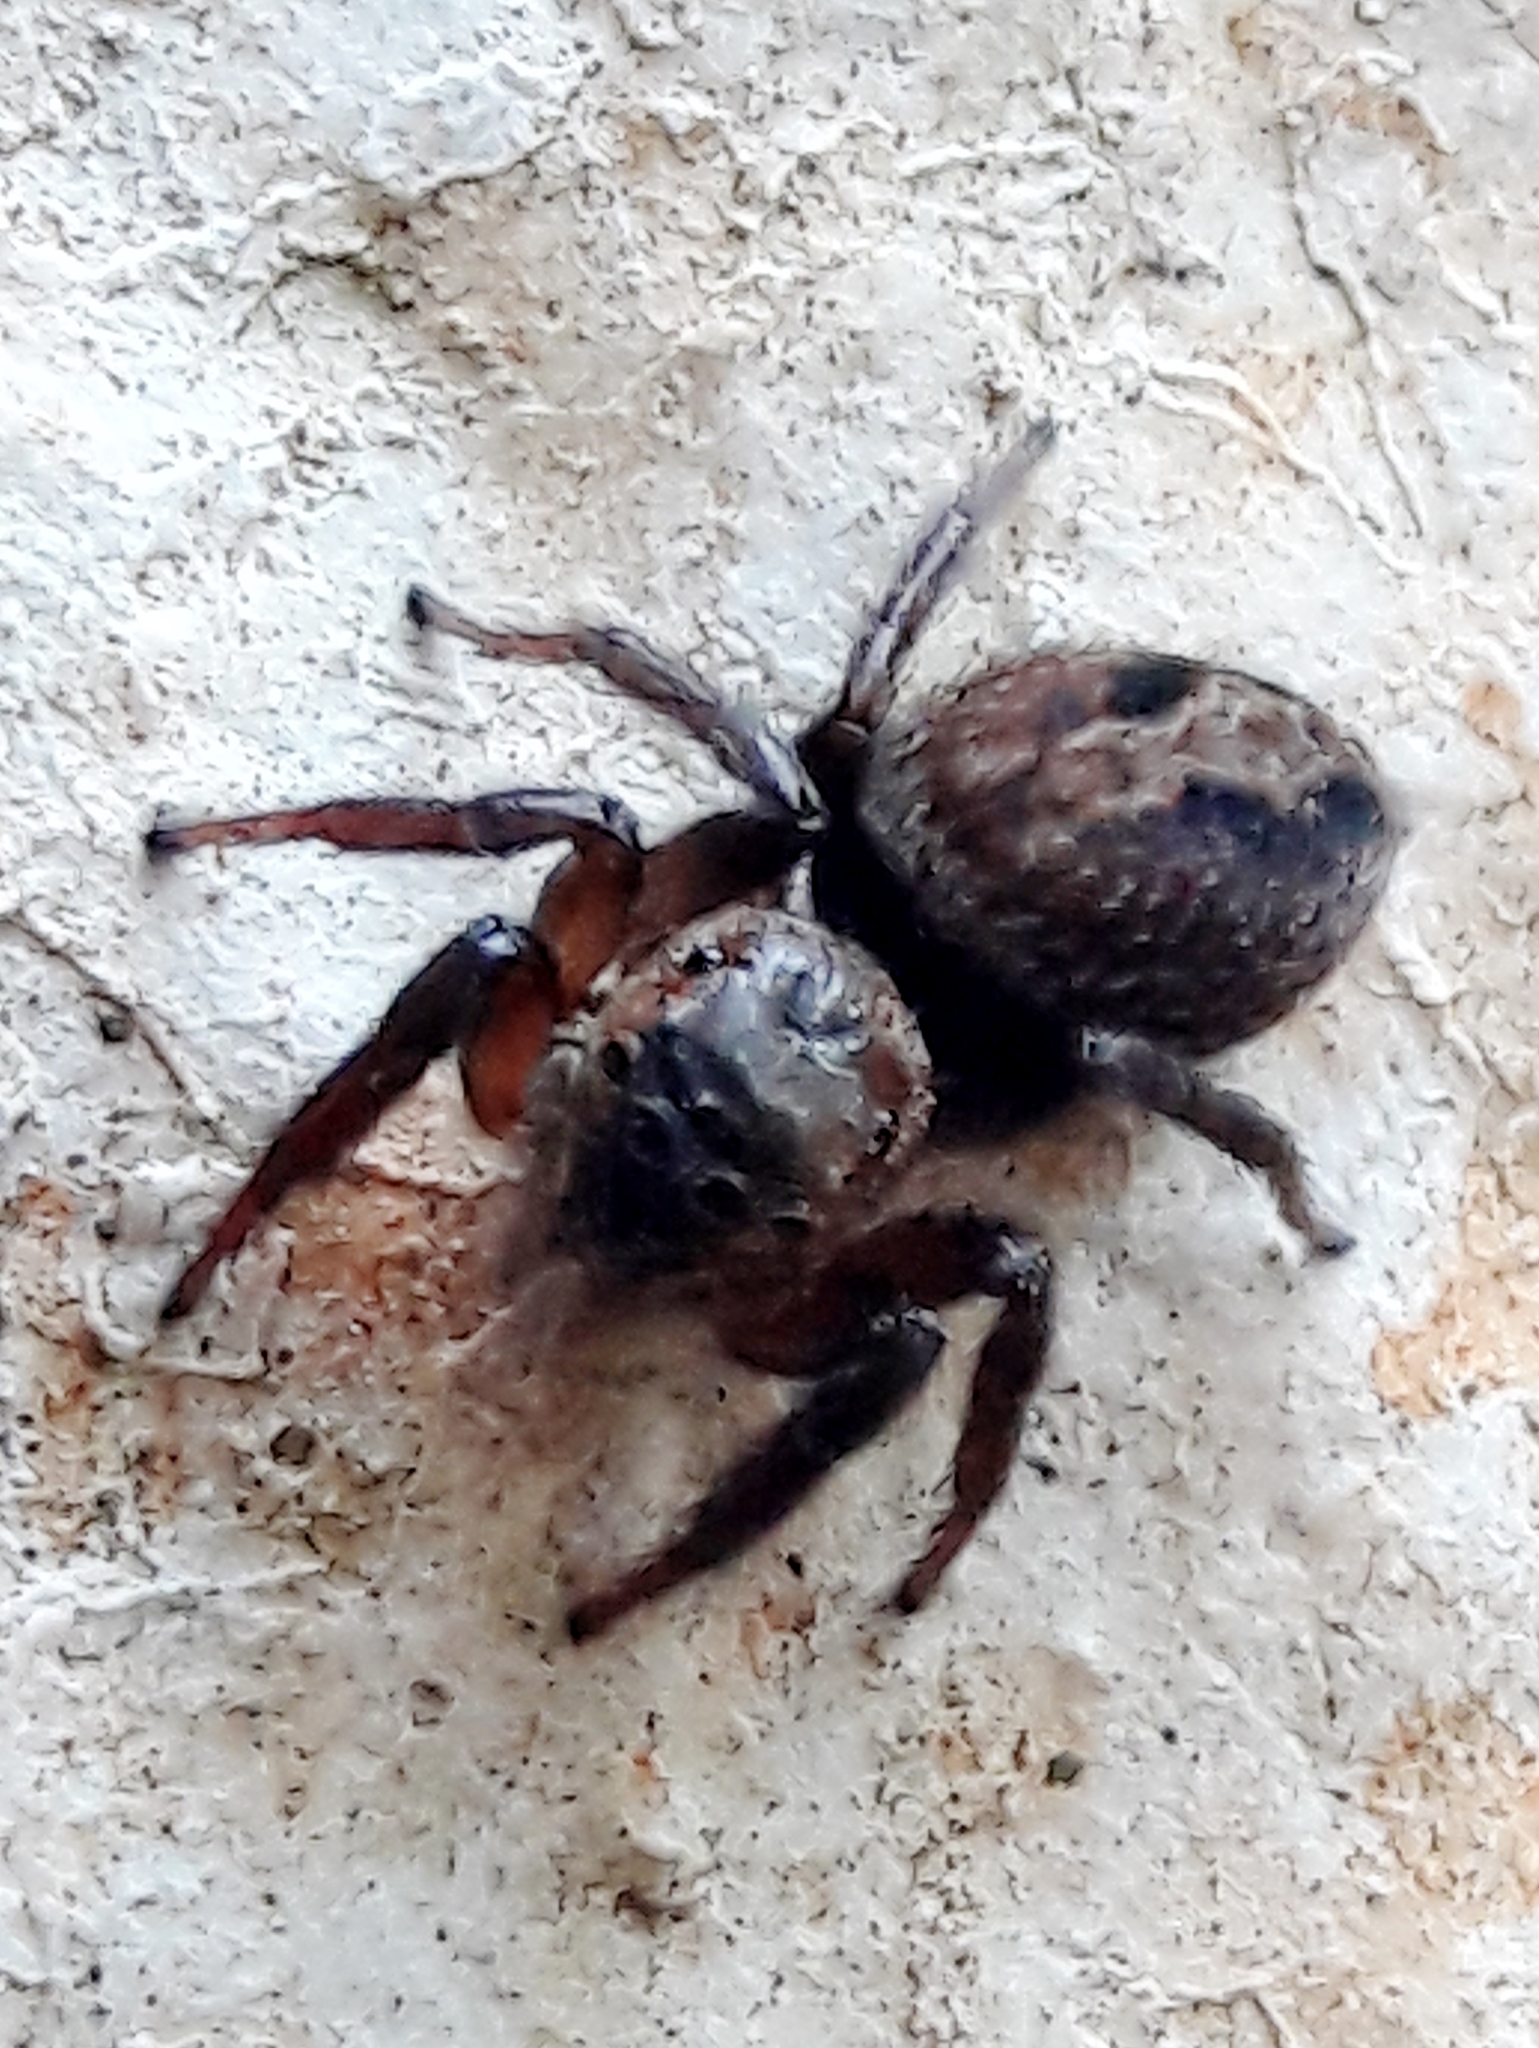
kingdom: Animalia
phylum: Arthropoda
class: Arachnida
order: Araneae
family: Salticidae
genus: Hasarius
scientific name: Hasarius adansoni
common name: Jumping spider
